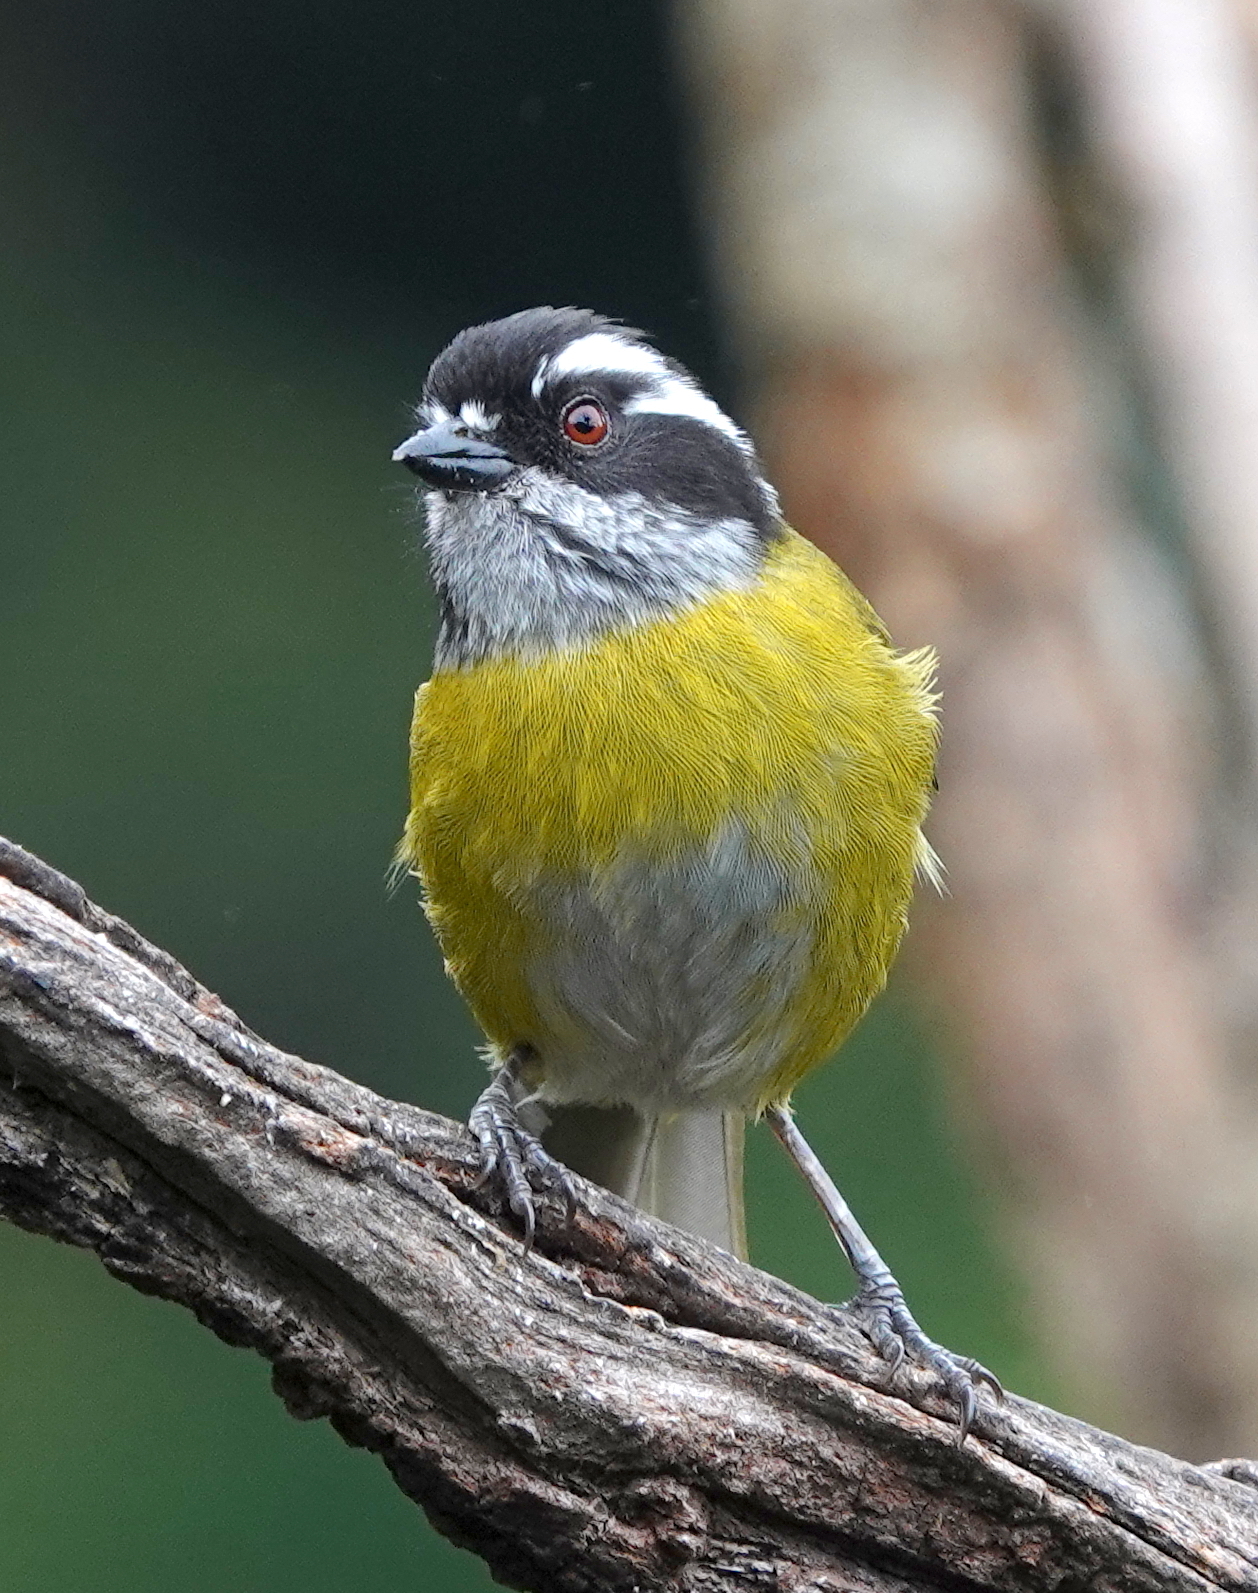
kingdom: Animalia
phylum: Chordata
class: Aves
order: Passeriformes
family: Passerellidae
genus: Chlorospingus
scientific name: Chlorospingus pileatus
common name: Sooty-capped bush-tanager
